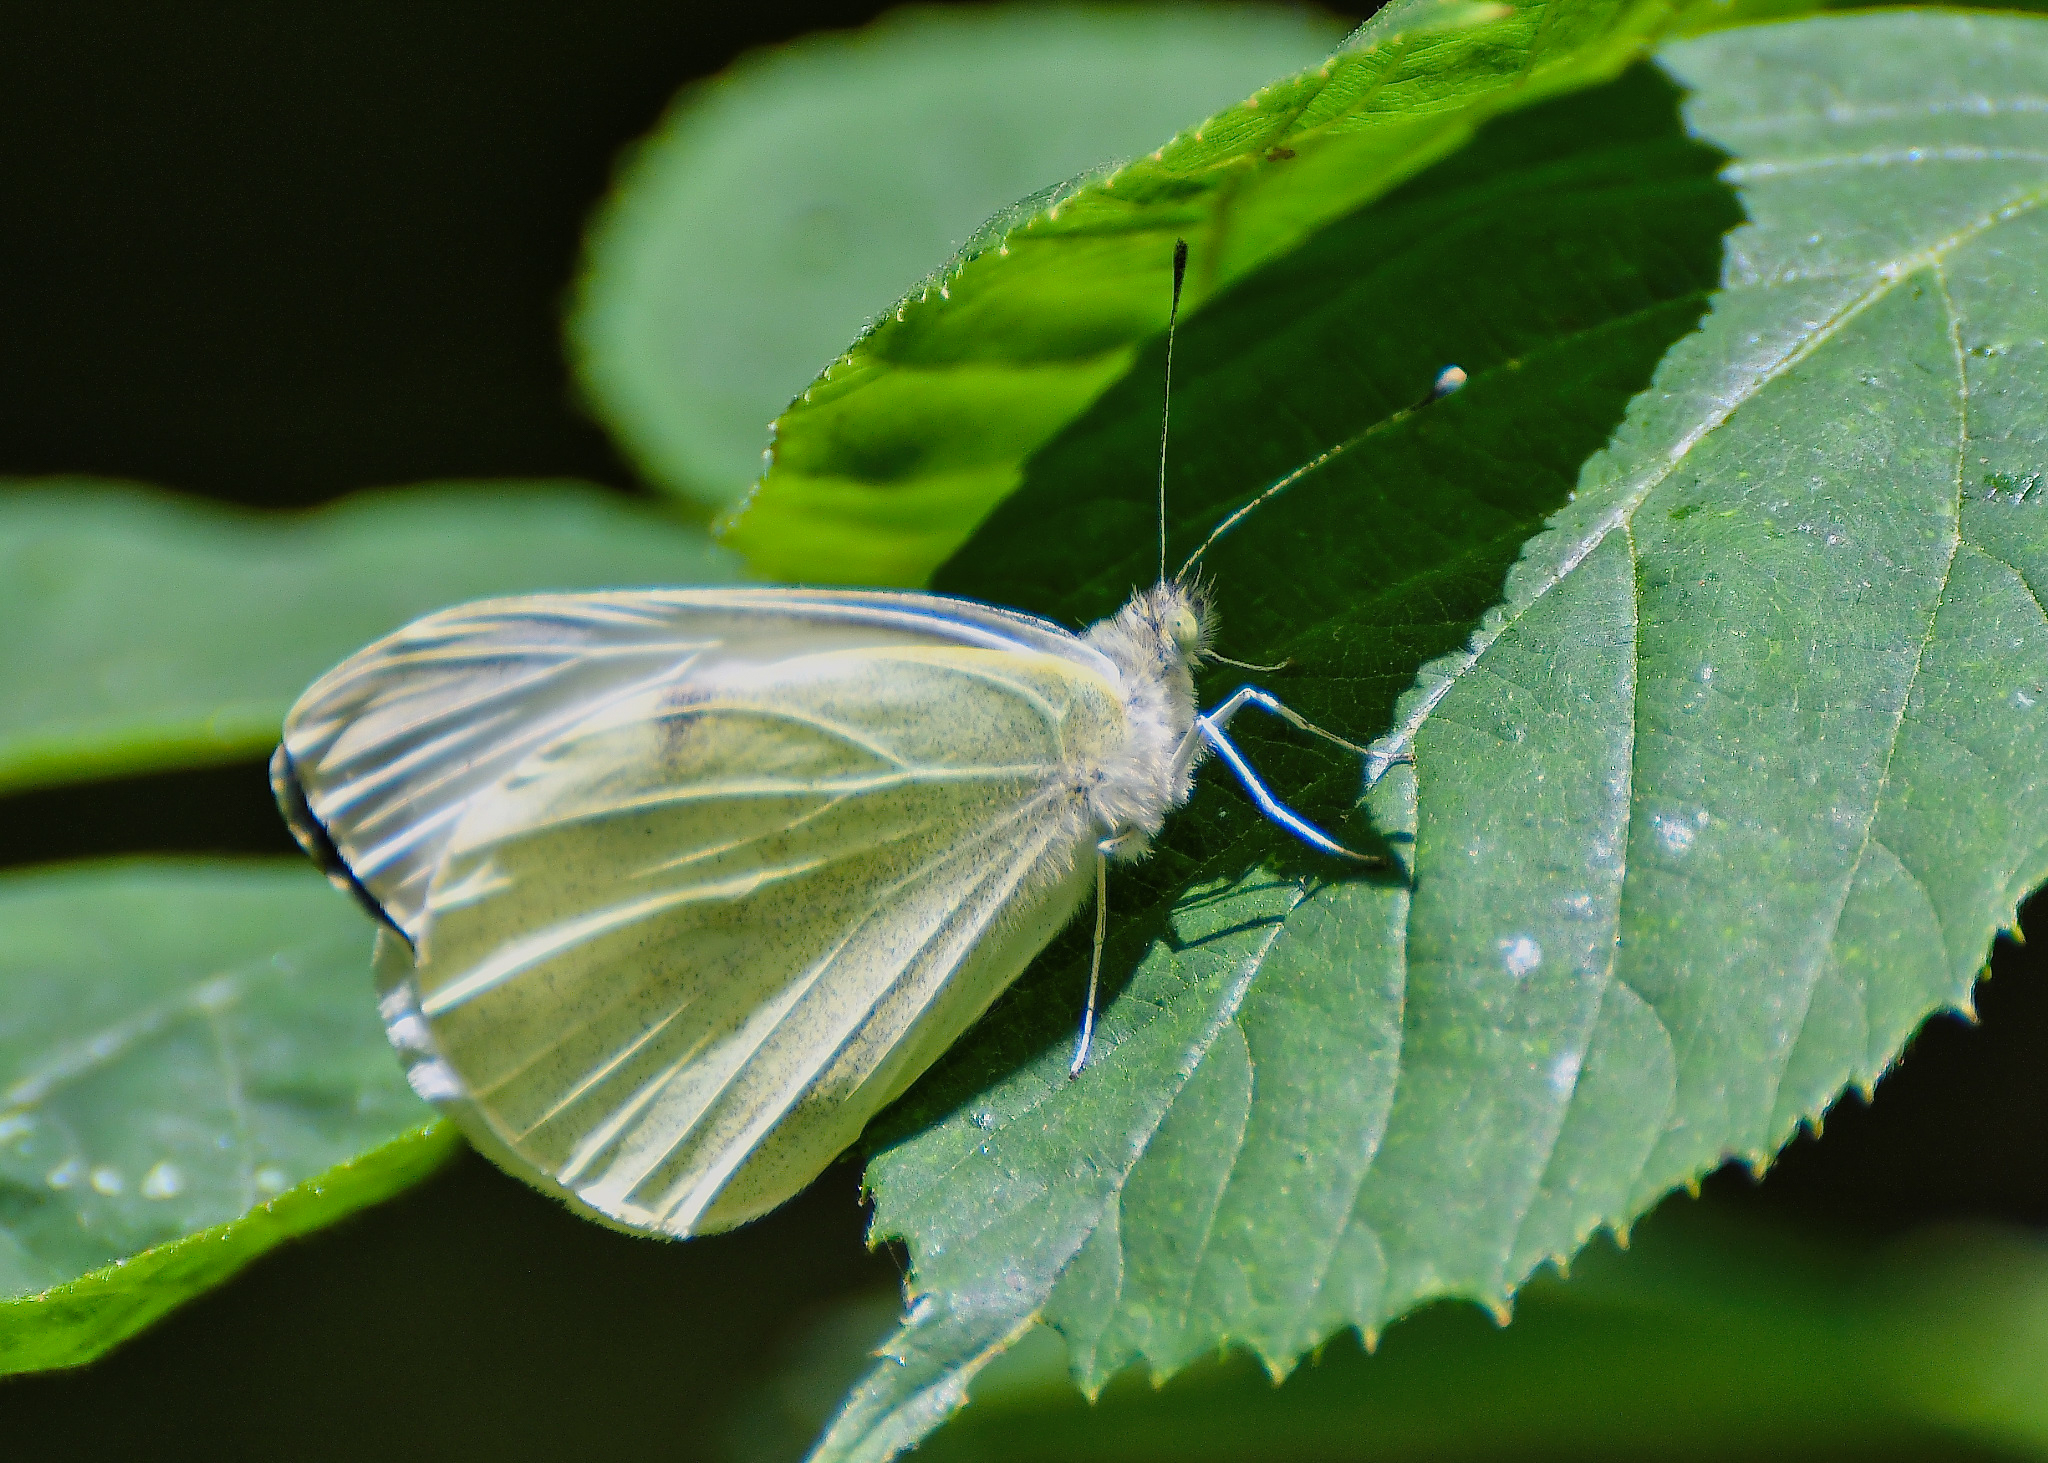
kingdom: Animalia
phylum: Arthropoda
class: Insecta
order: Lepidoptera
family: Pieridae
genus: Pieris
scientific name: Pieris brassicae
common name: Large white
